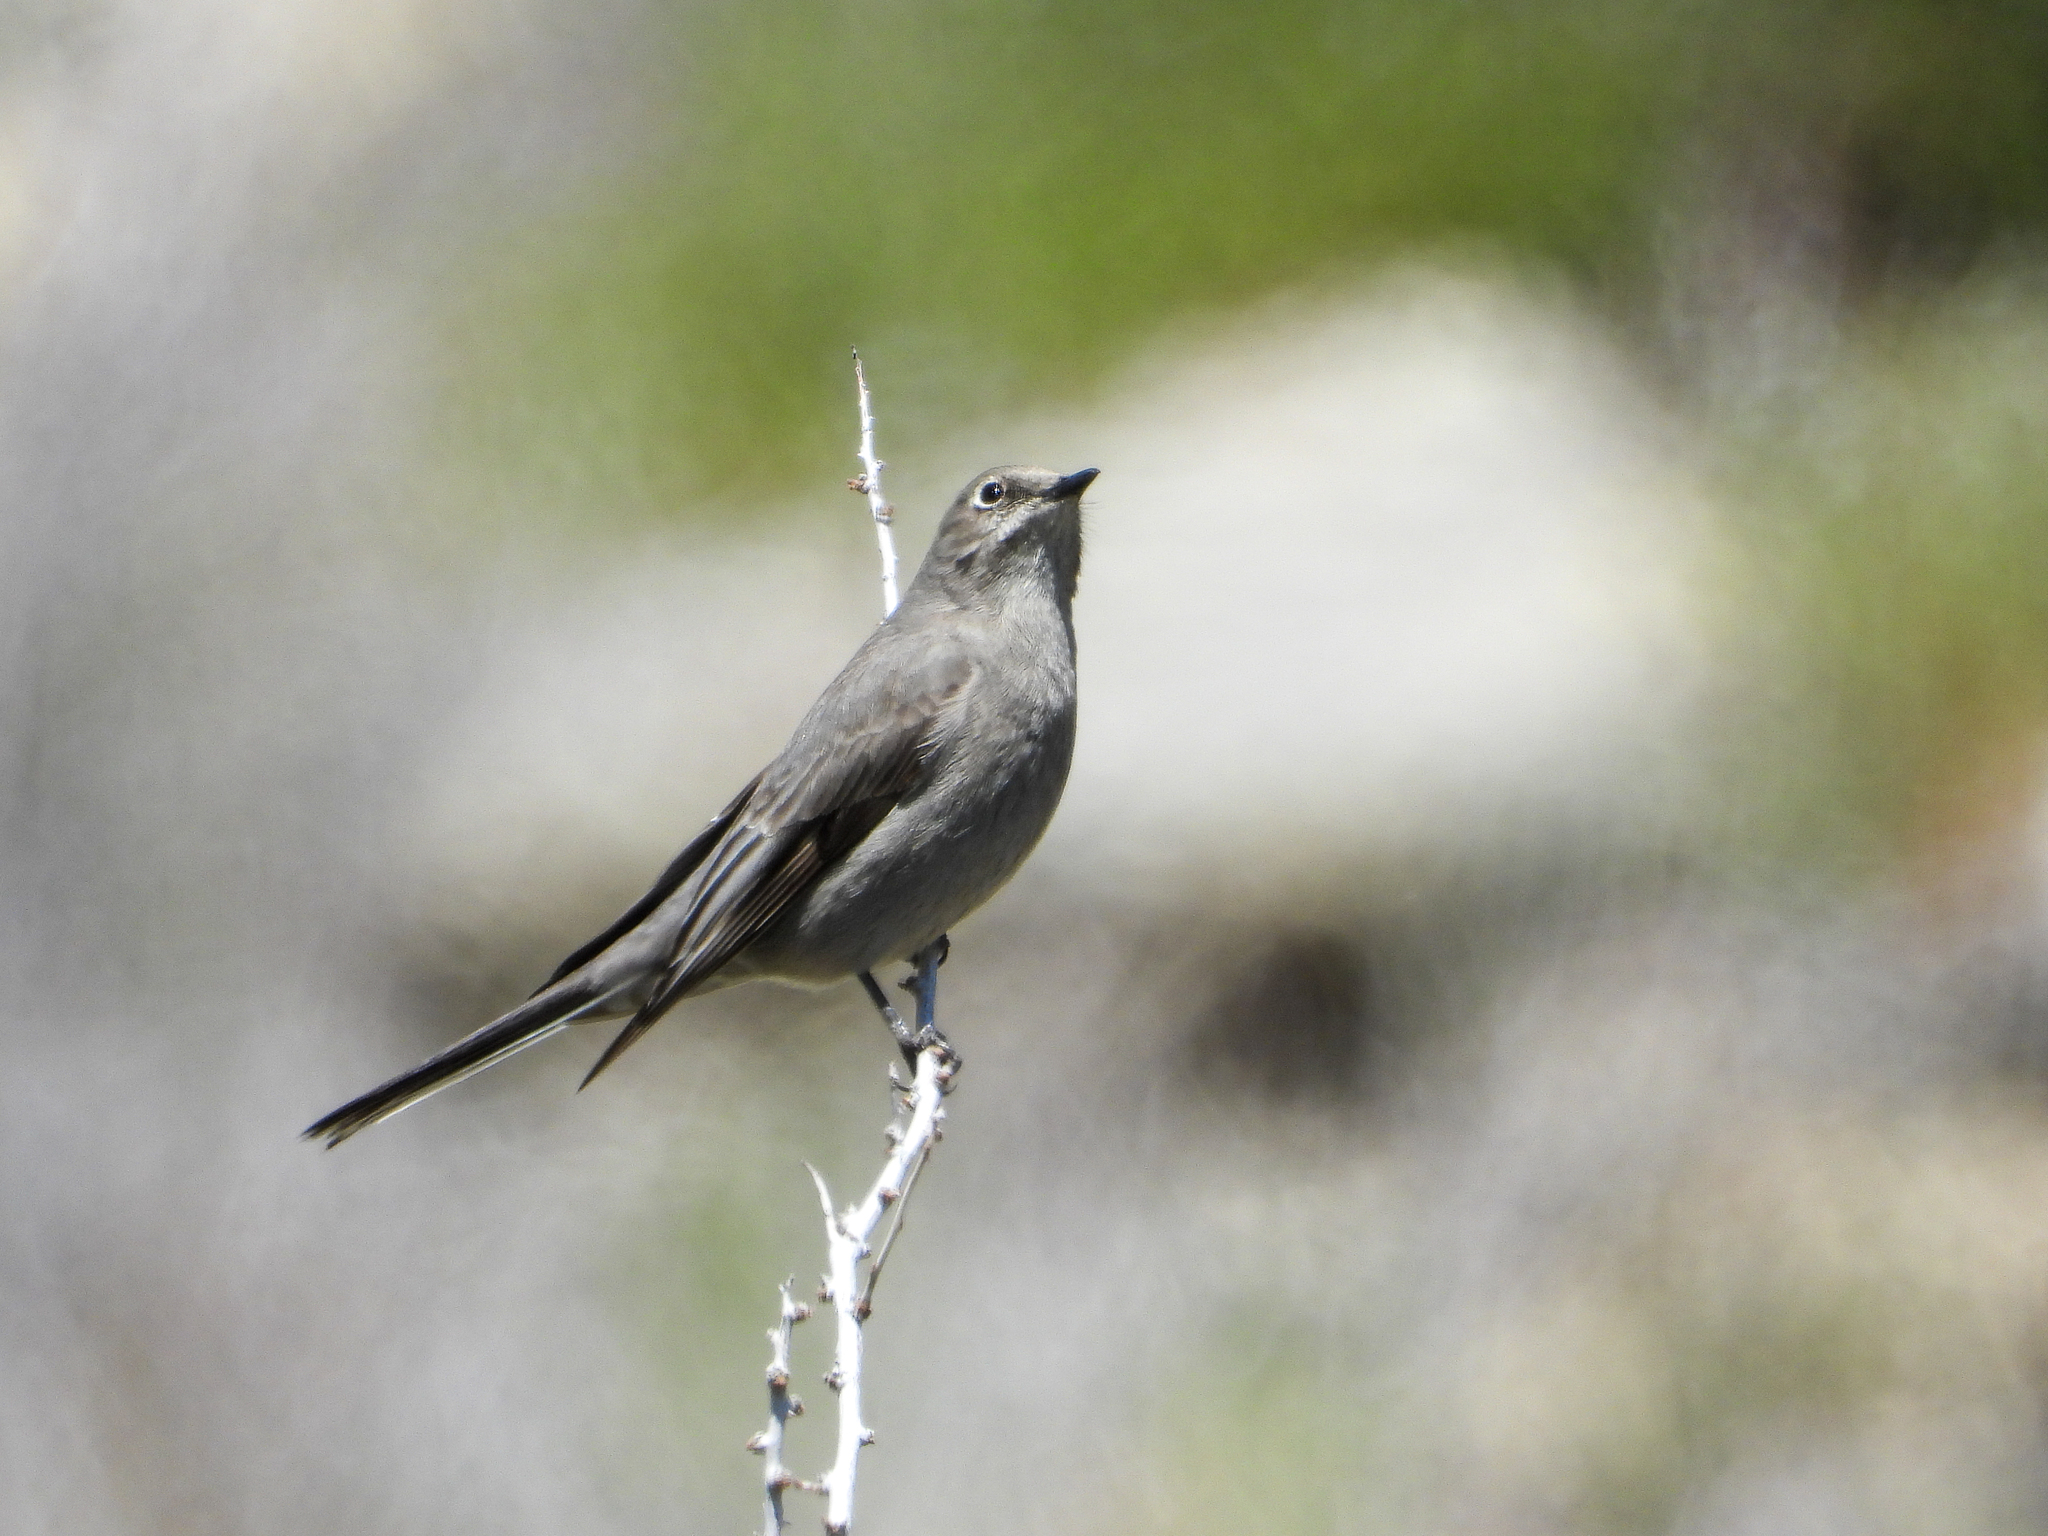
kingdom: Animalia
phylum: Chordata
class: Aves
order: Passeriformes
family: Turdidae
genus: Myadestes
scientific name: Myadestes townsendi
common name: Townsend's solitaire
